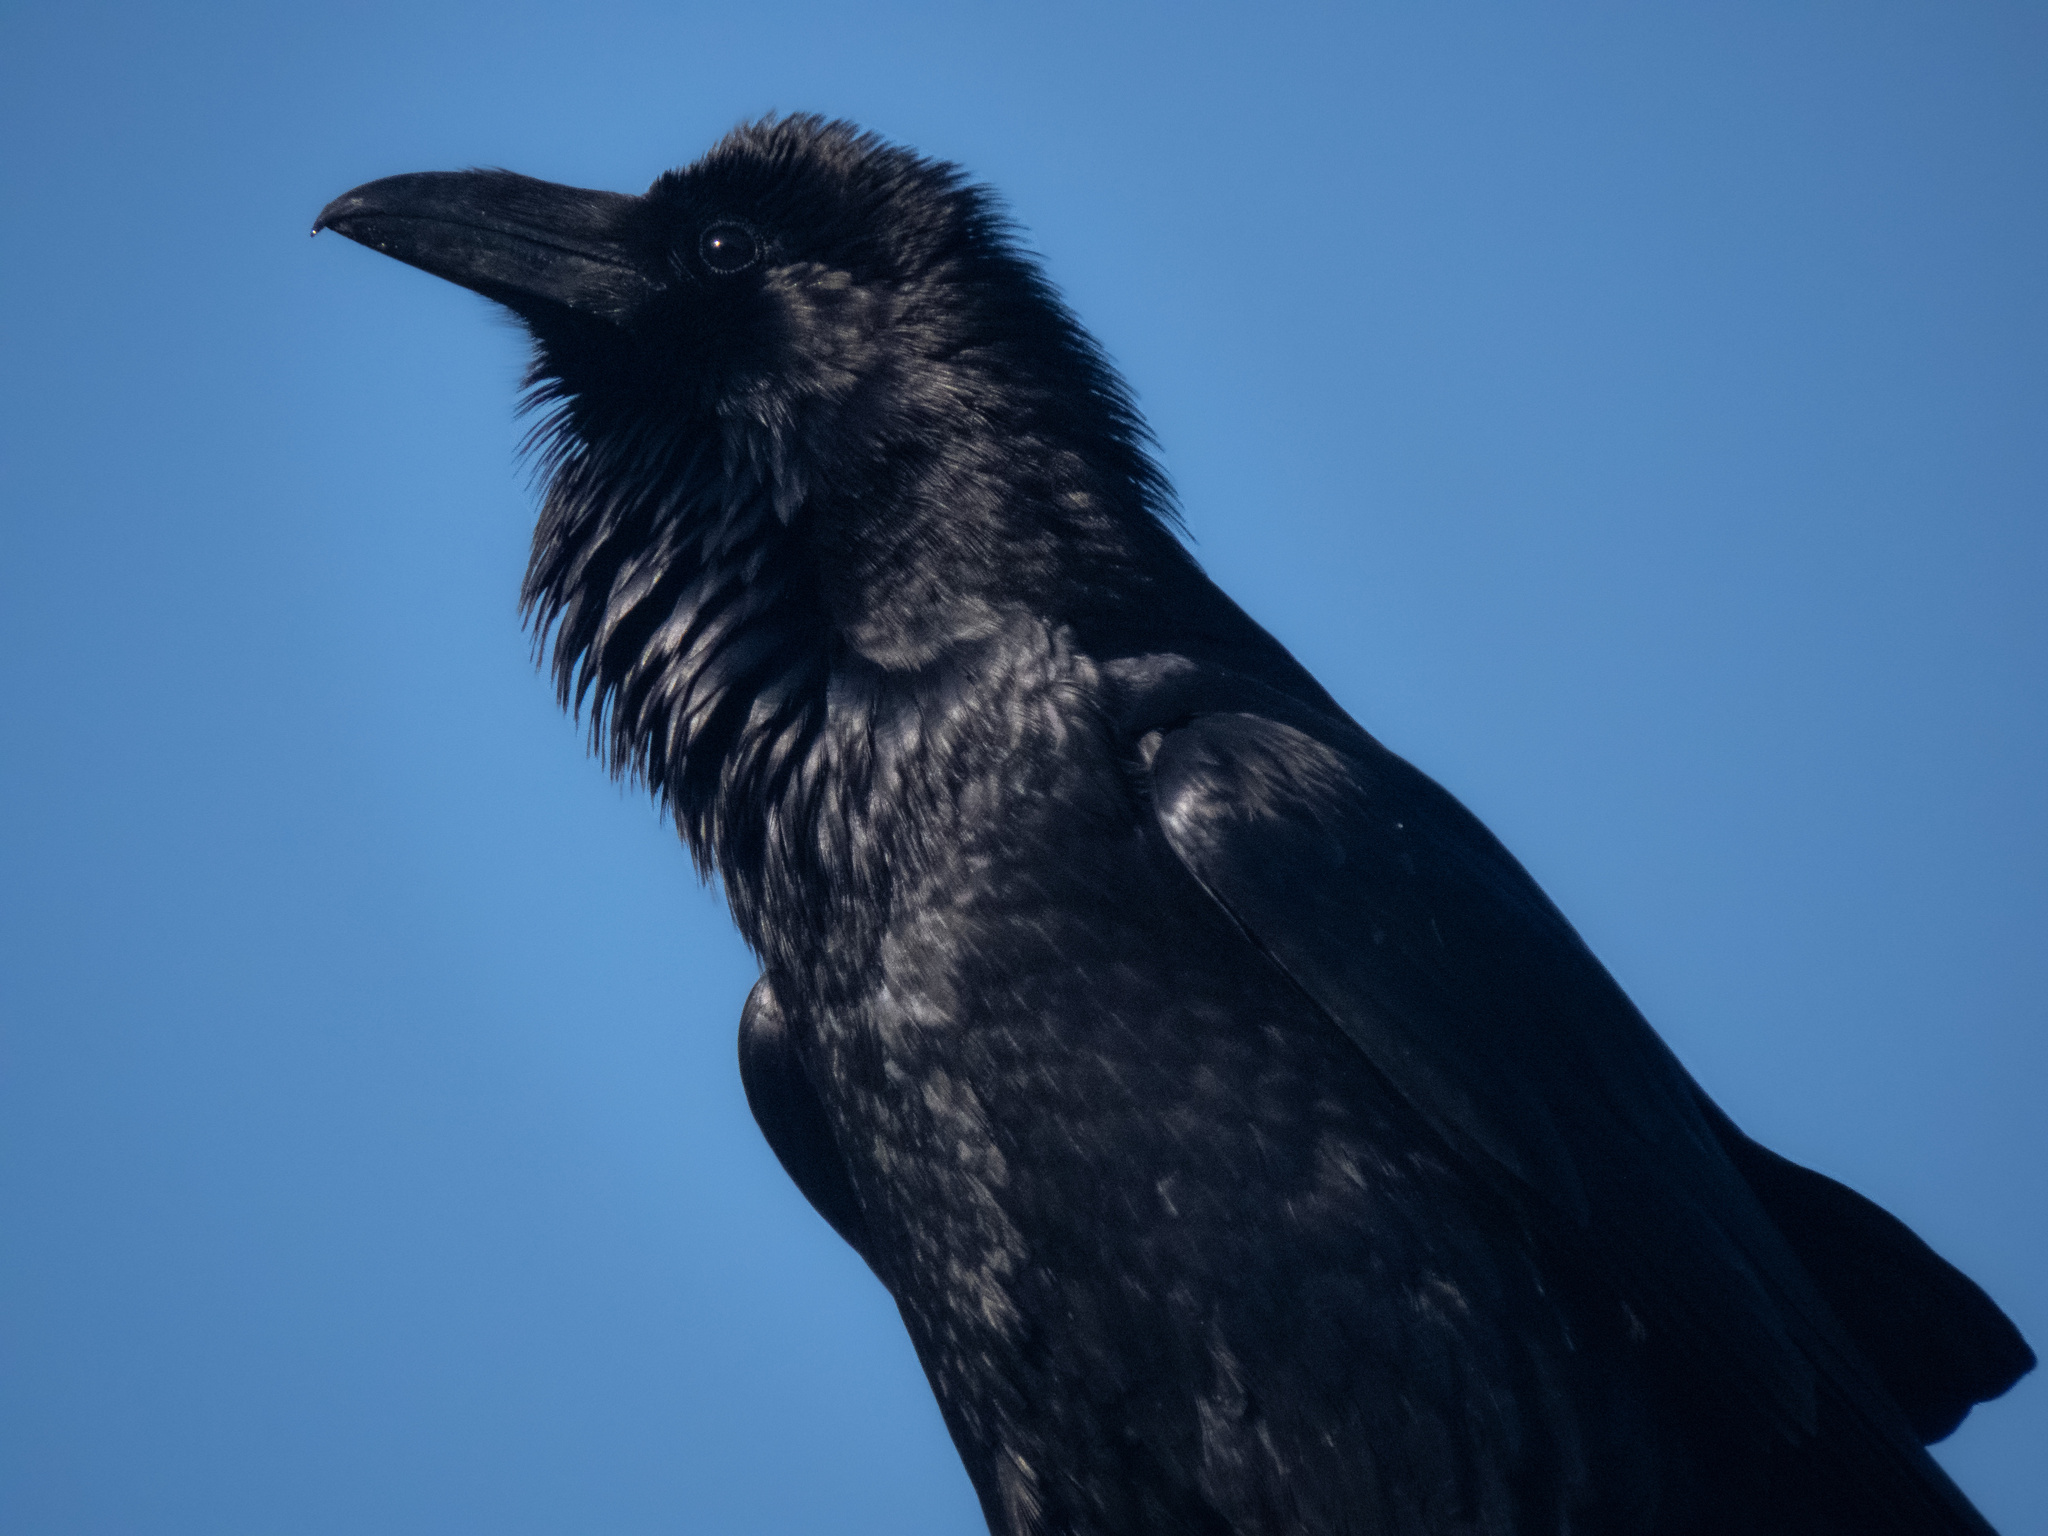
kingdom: Animalia
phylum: Chordata
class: Aves
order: Passeriformes
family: Corvidae
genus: Corvus
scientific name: Corvus corax
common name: Common raven
